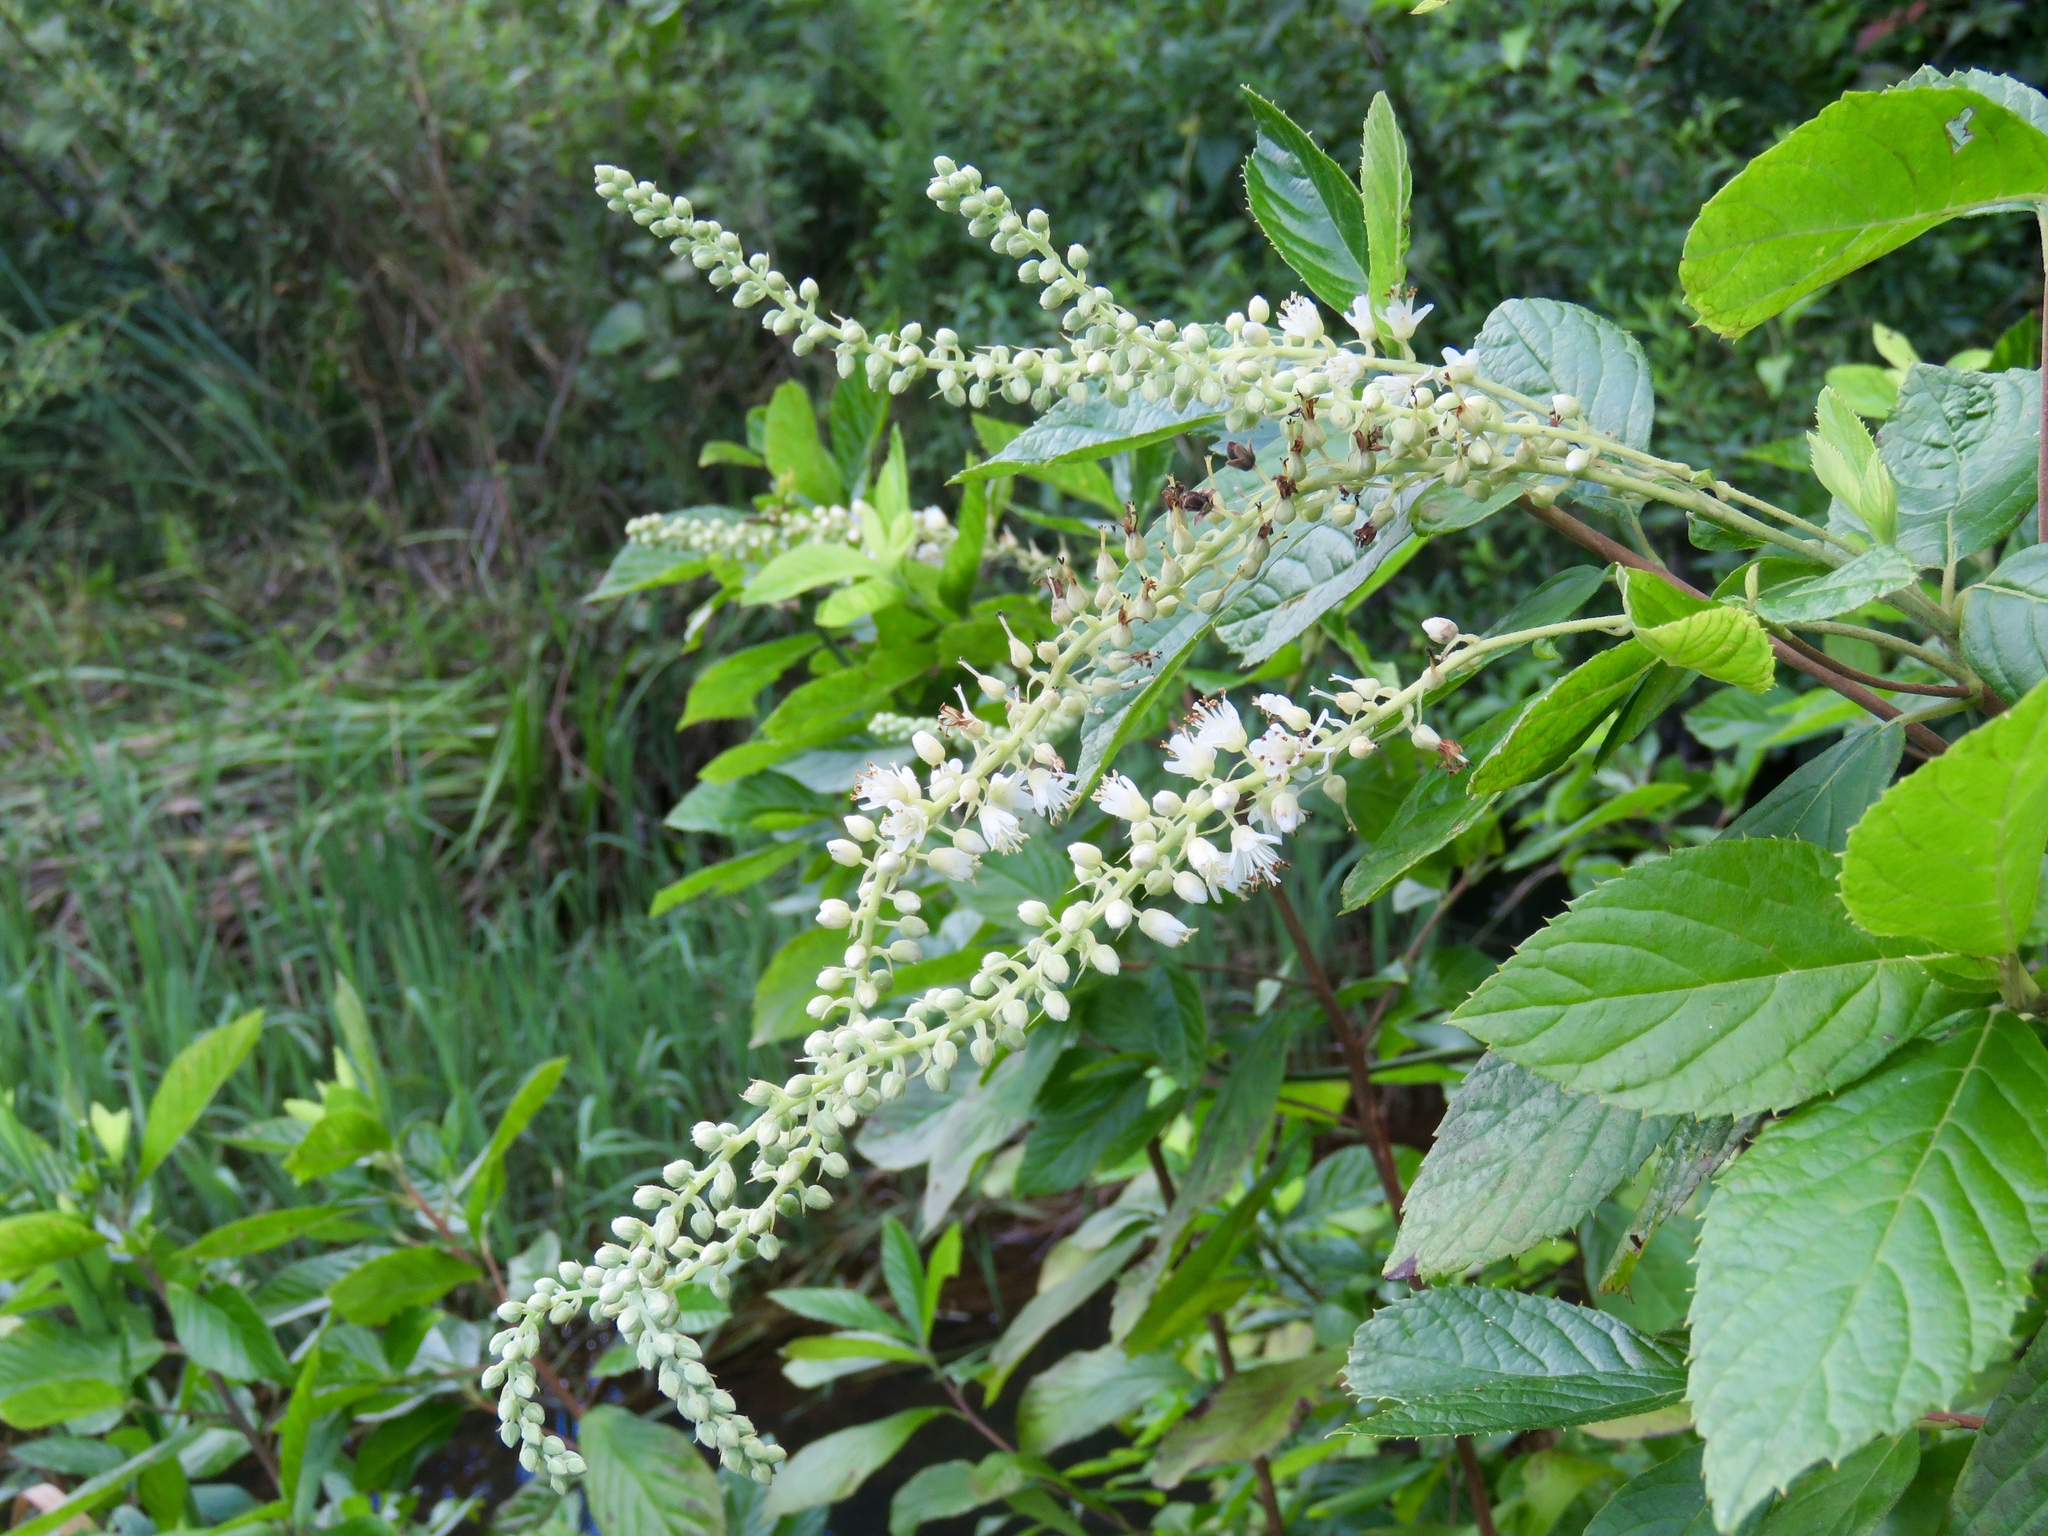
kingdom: Plantae
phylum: Tracheophyta
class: Magnoliopsida
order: Ericales
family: Clethraceae
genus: Clethra
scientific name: Clethra alnifolia
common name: Sweet pepperbush
